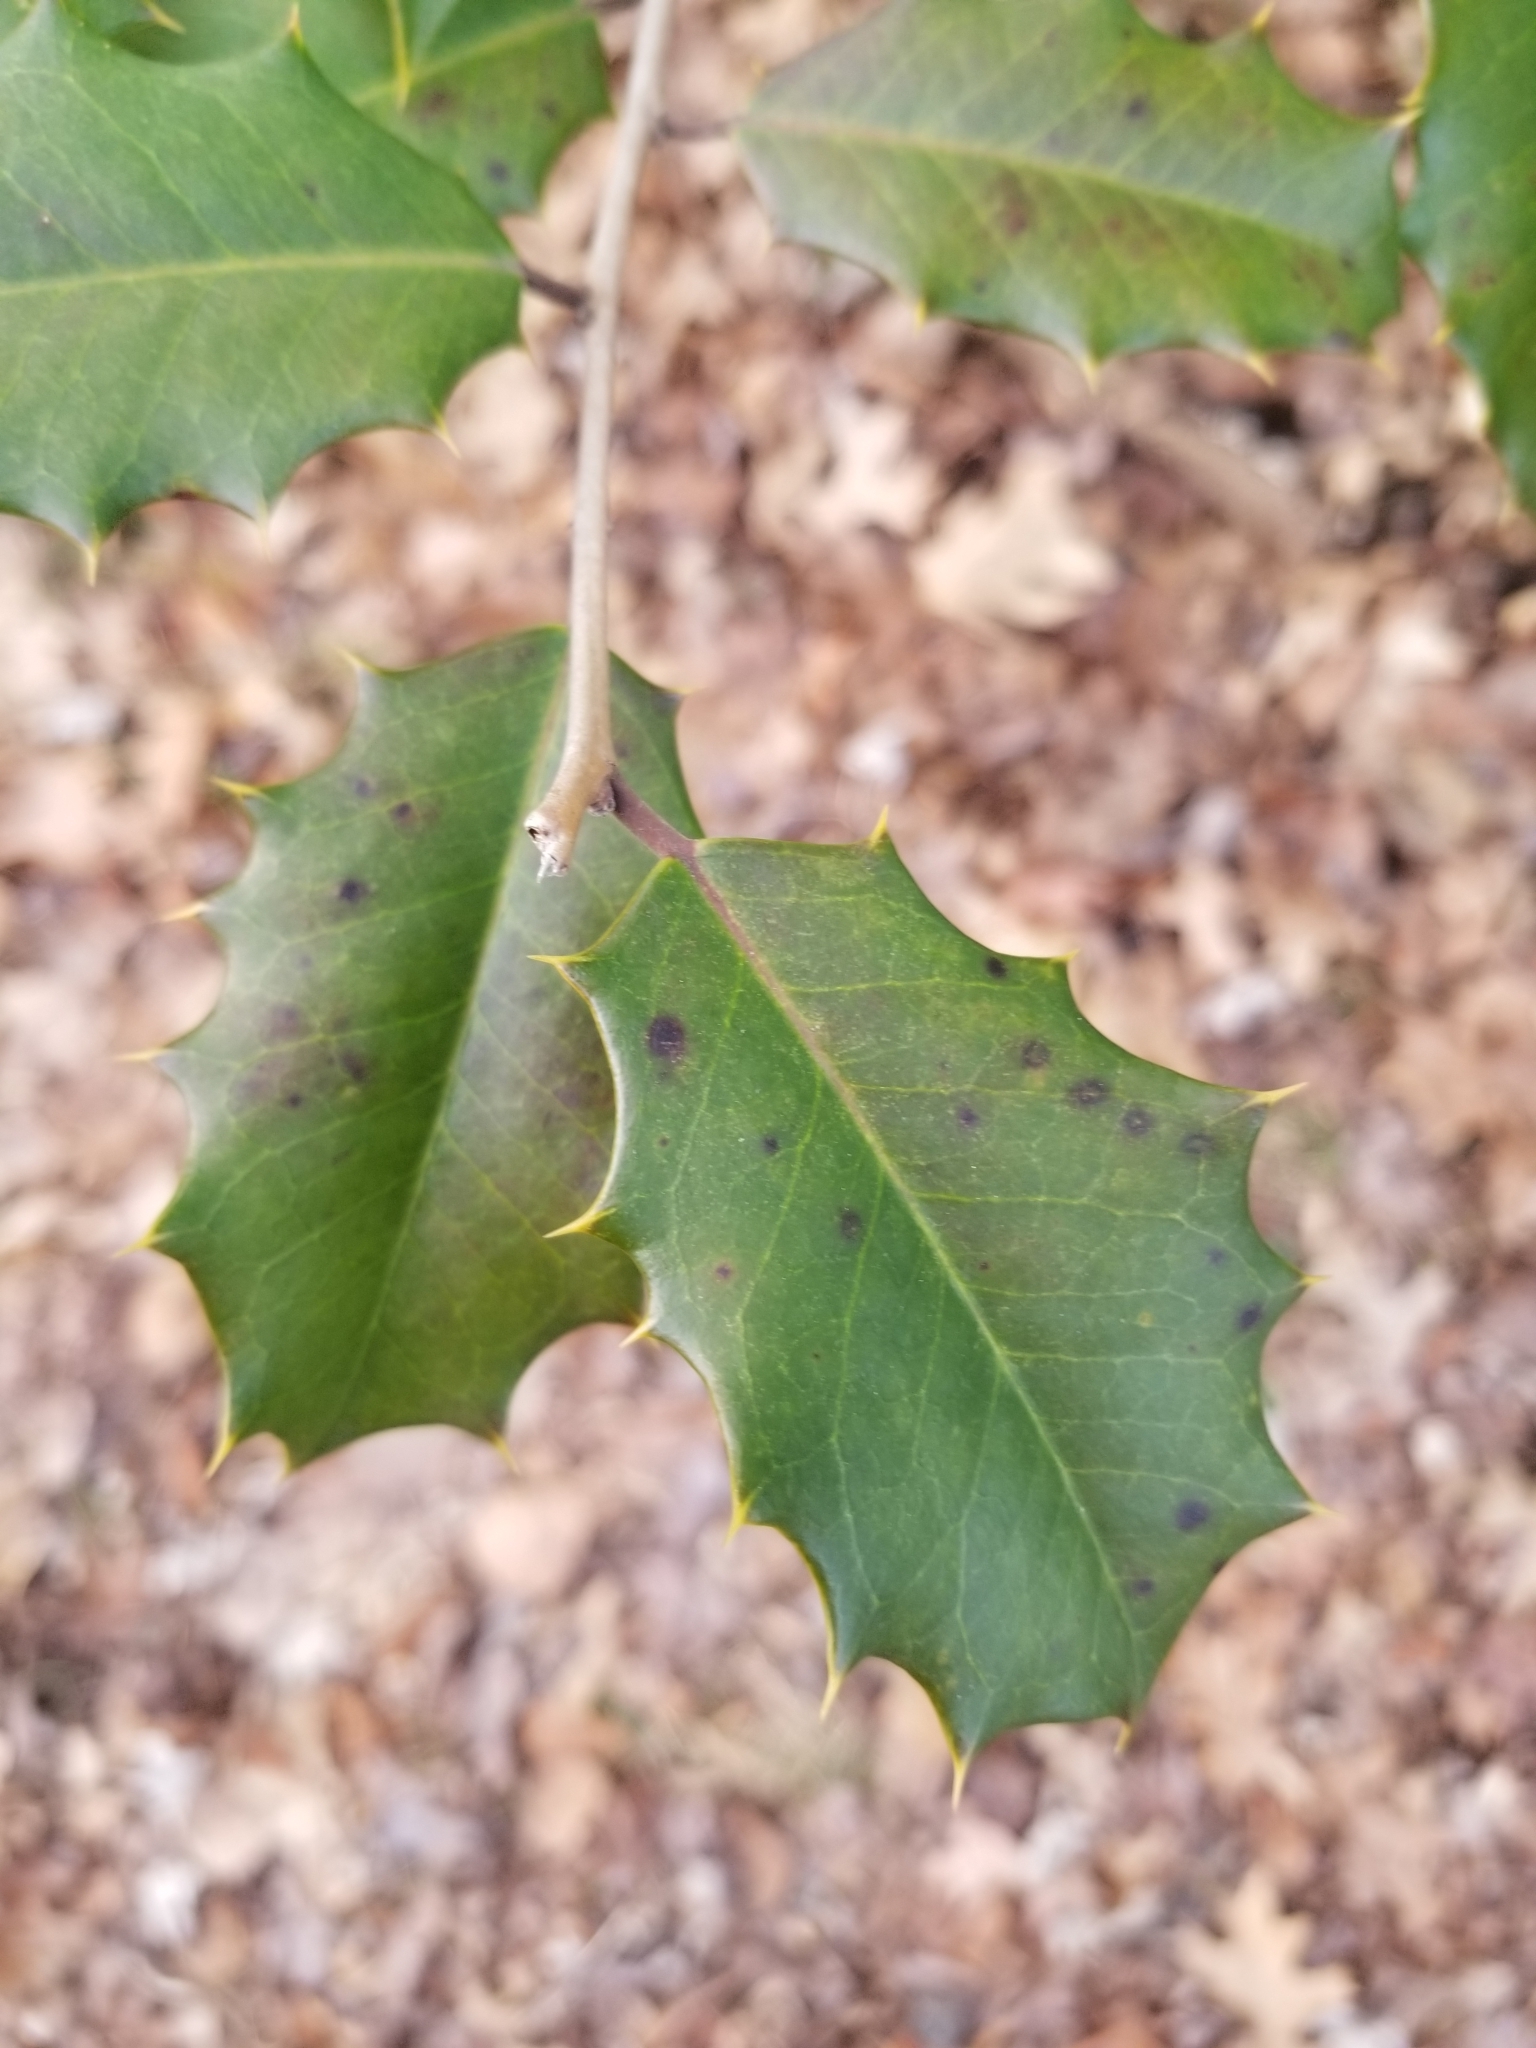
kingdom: Plantae
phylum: Tracheophyta
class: Magnoliopsida
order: Aquifoliales
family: Aquifoliaceae
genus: Ilex
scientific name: Ilex opaca
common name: American holly
